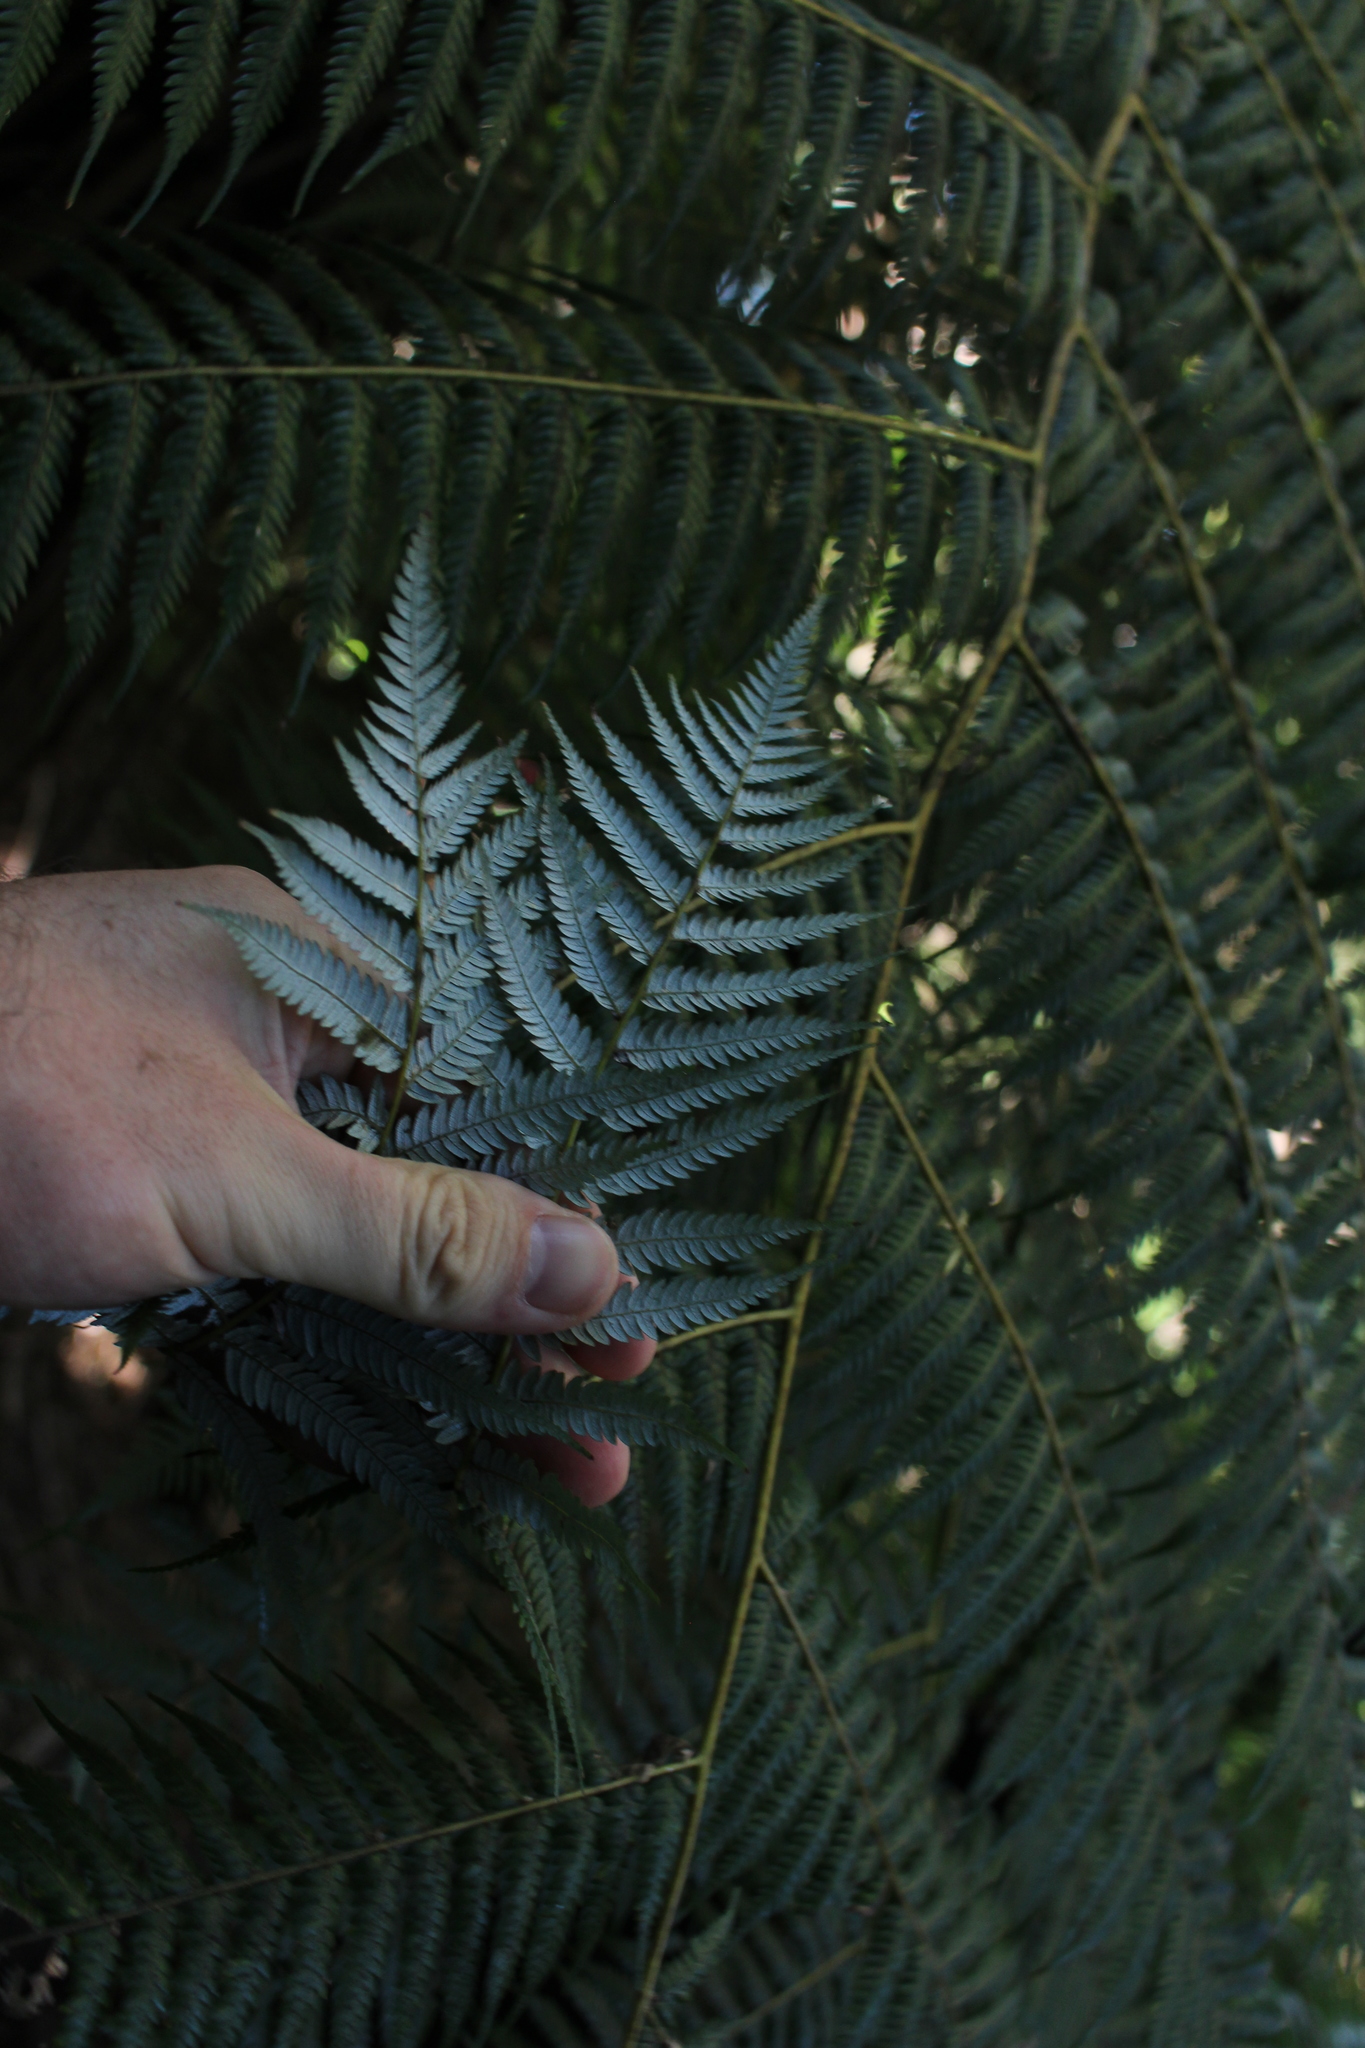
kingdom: Plantae
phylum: Tracheophyta
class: Polypodiopsida
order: Cyatheales
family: Cyatheaceae
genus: Alsophila
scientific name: Alsophila dealbata
